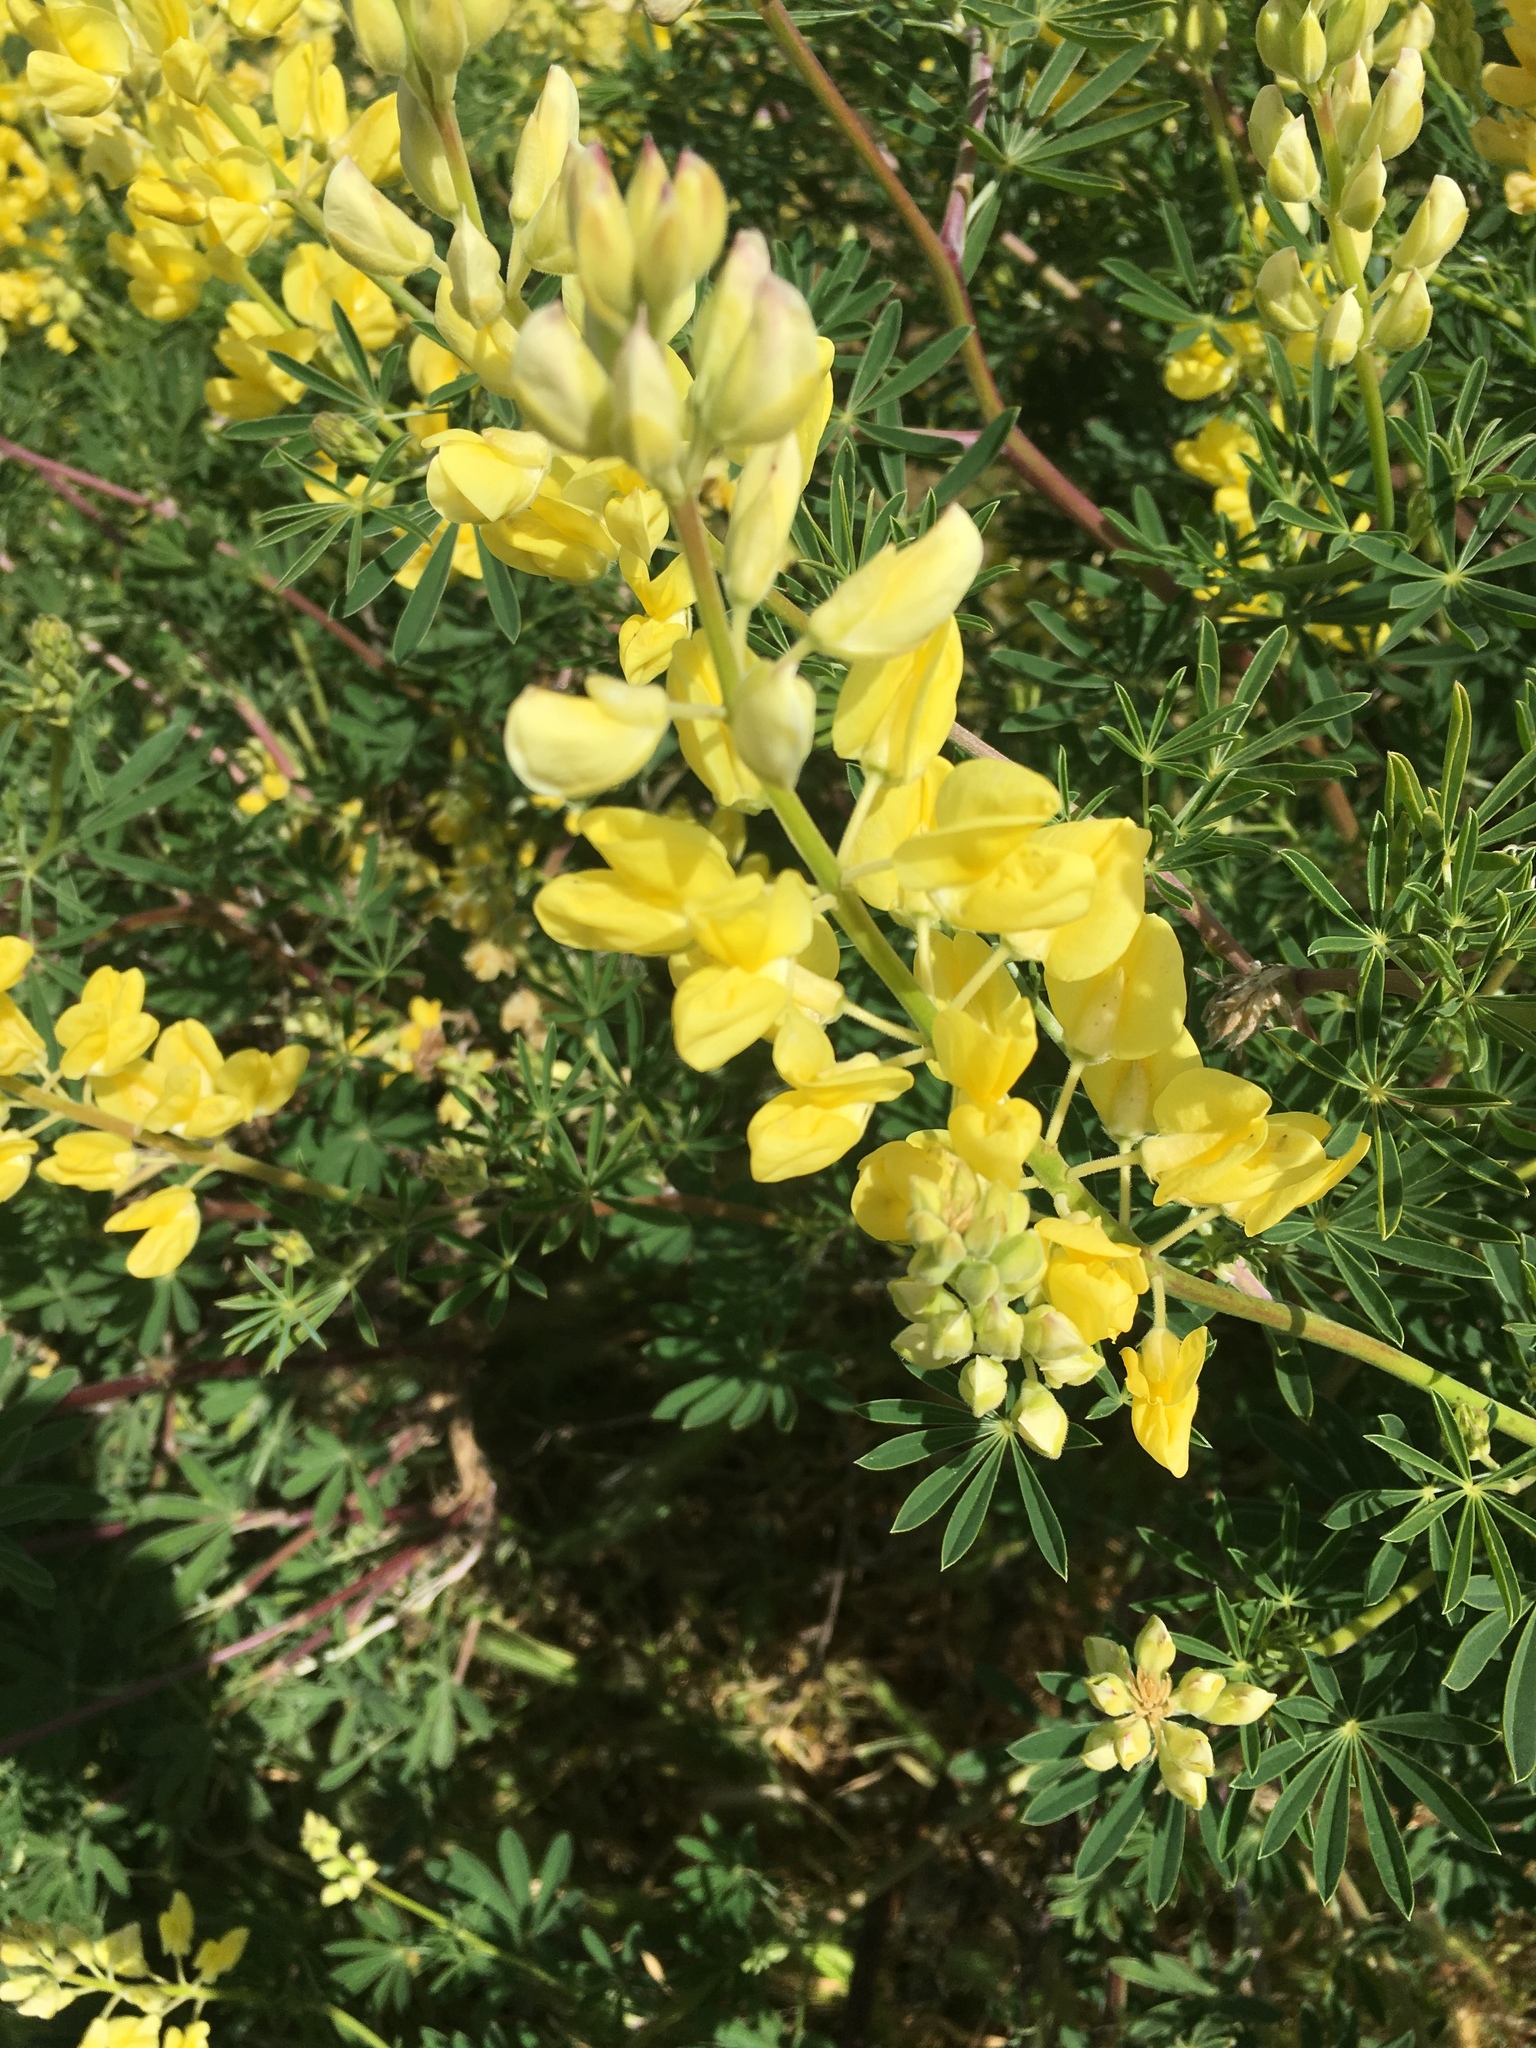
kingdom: Plantae
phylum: Tracheophyta
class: Magnoliopsida
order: Fabales
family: Fabaceae
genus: Lupinus
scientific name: Lupinus arboreus
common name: Yellow bush lupine
